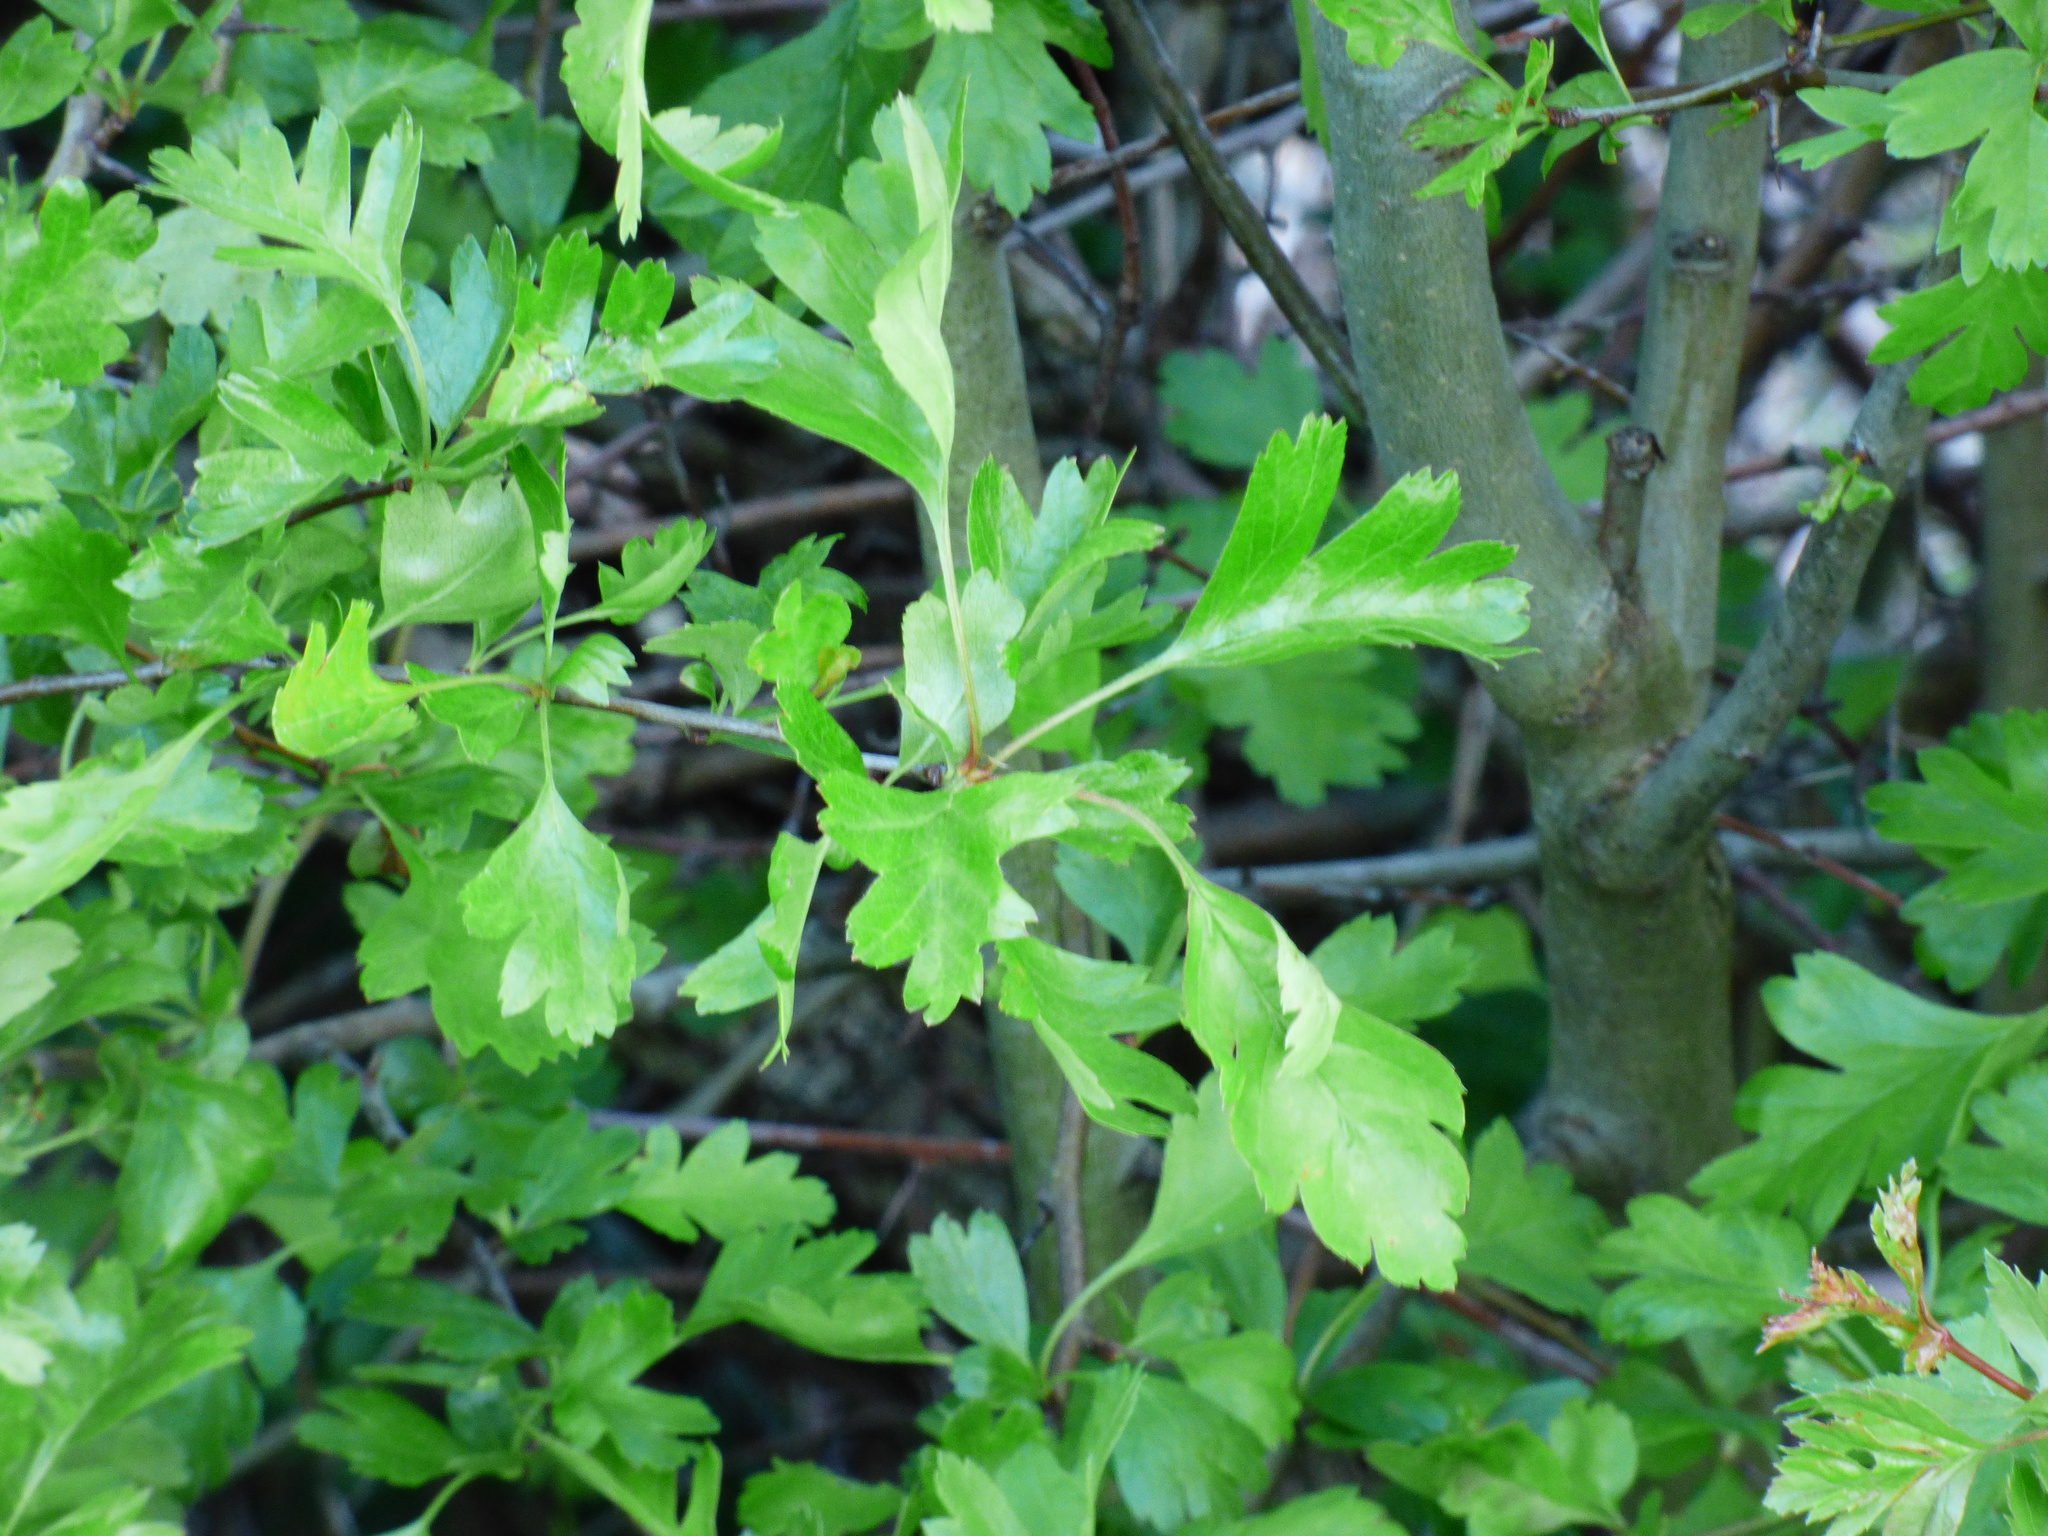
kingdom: Plantae
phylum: Tracheophyta
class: Magnoliopsida
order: Rosales
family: Rosaceae
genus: Crataegus
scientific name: Crataegus monogyna
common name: Hawthorn
